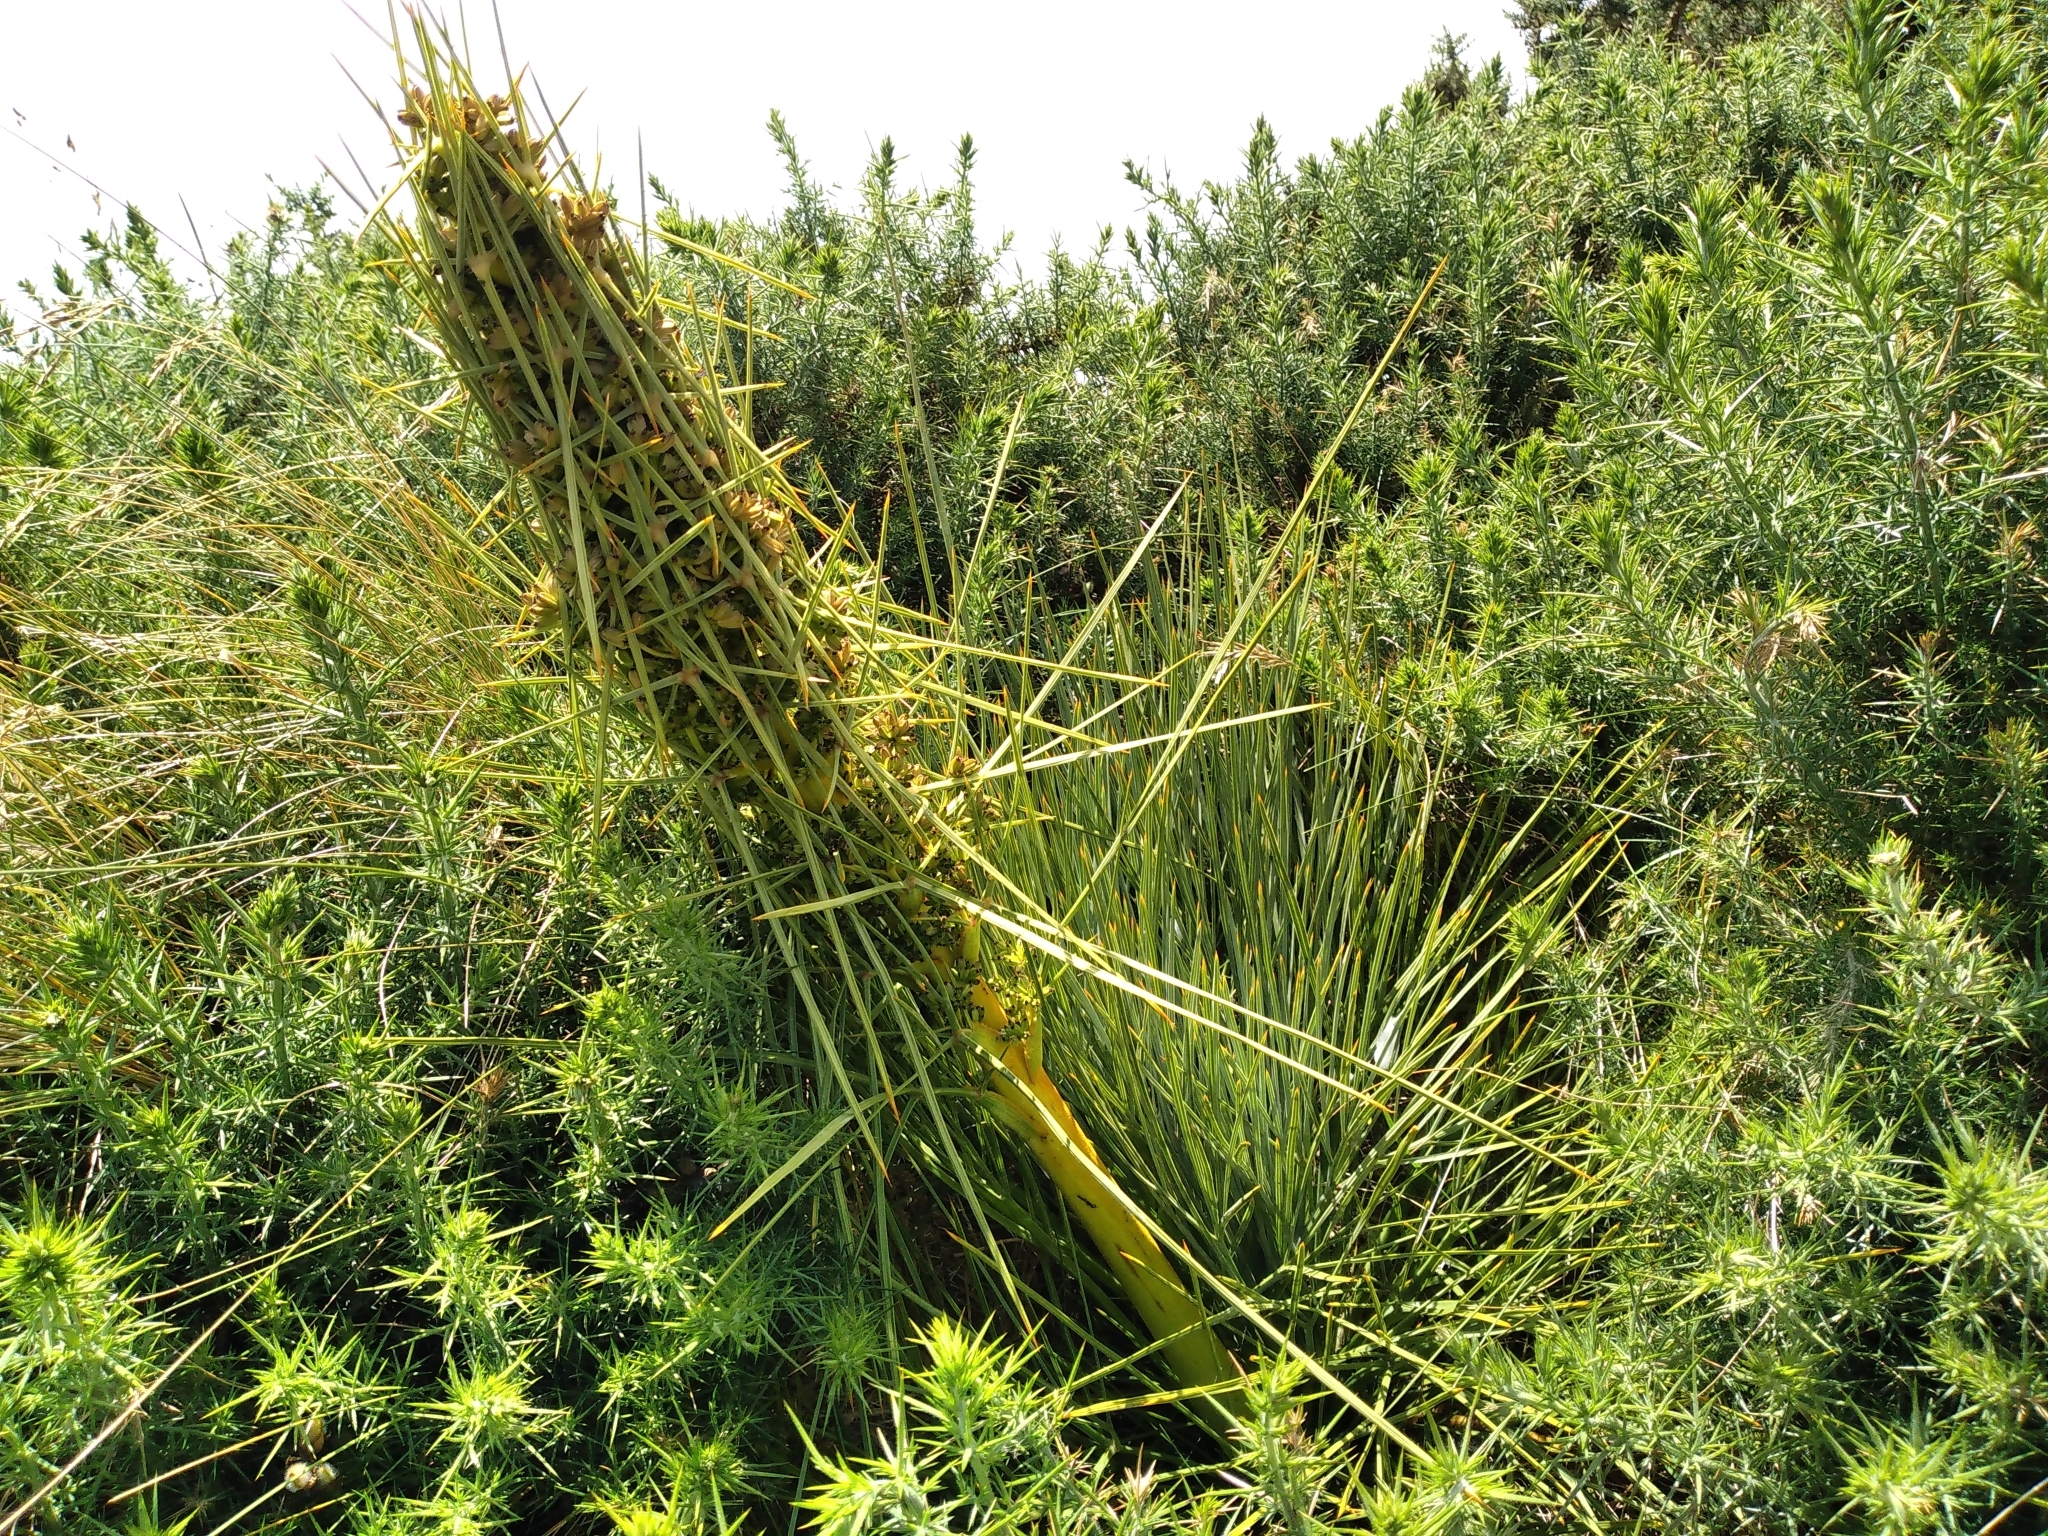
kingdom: Plantae
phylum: Tracheophyta
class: Magnoliopsida
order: Apiales
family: Apiaceae
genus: Aciphylla
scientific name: Aciphylla squarrosa
